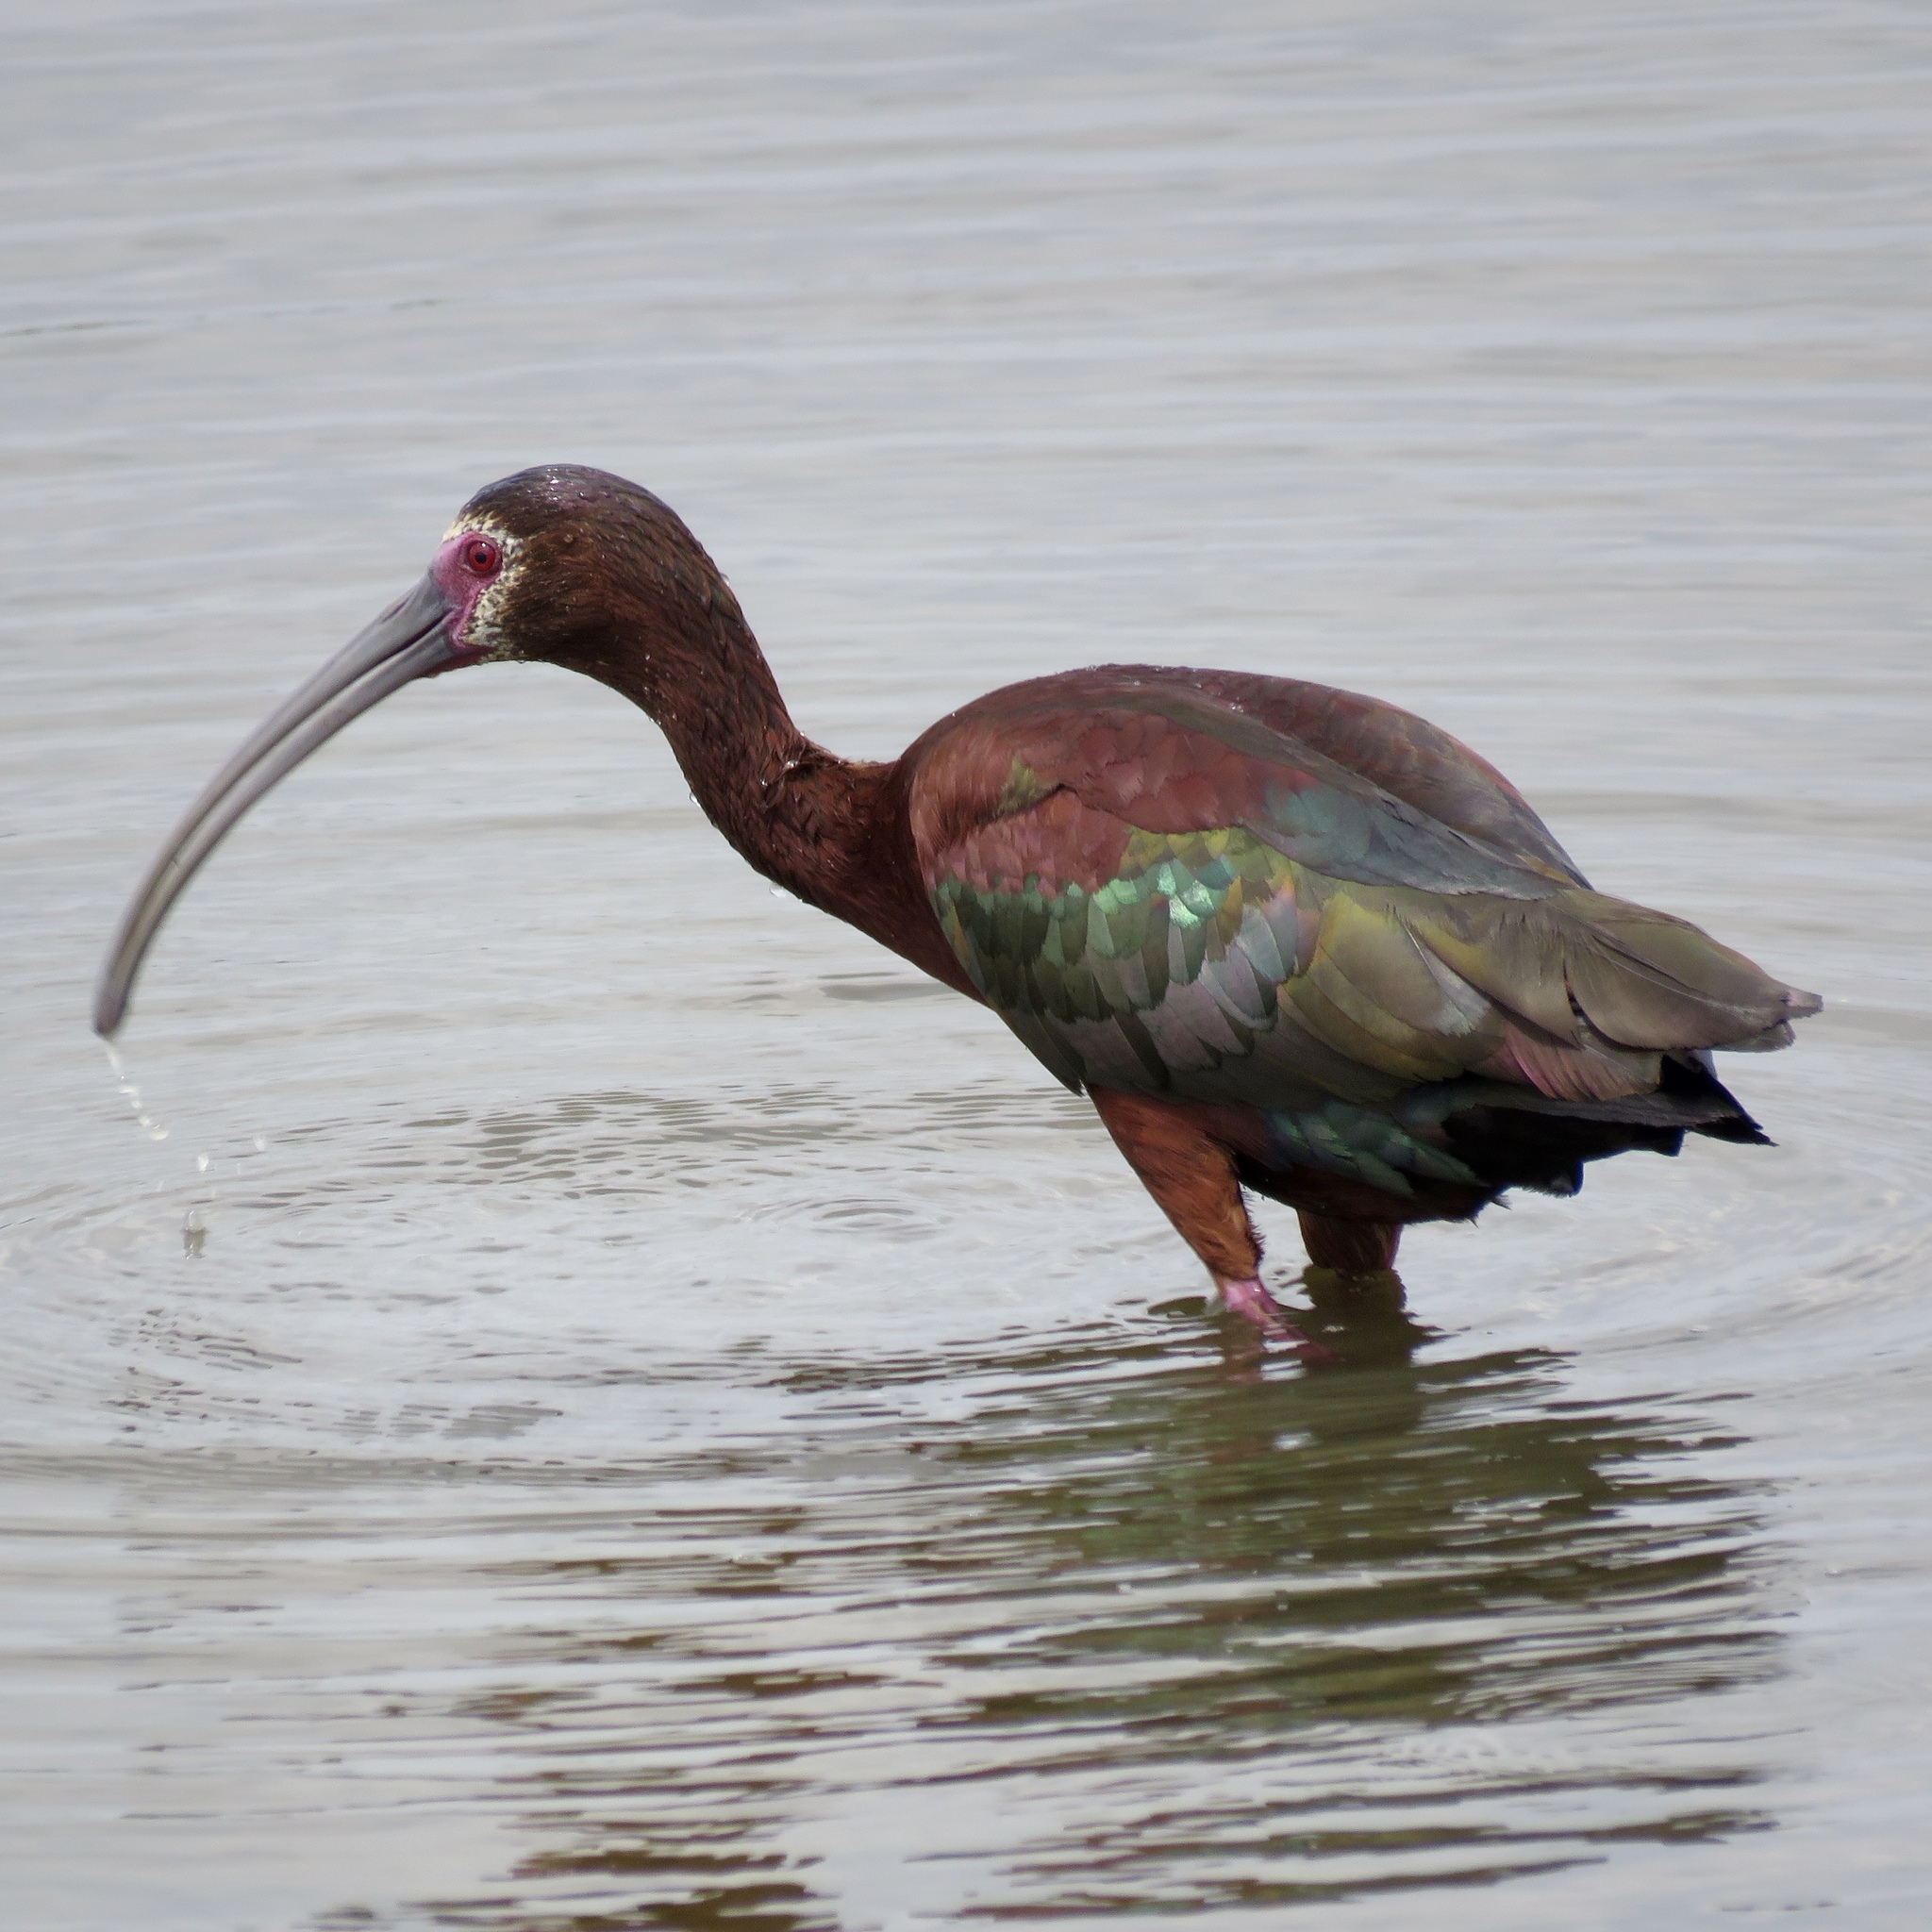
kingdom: Animalia
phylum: Chordata
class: Aves
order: Pelecaniformes
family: Threskiornithidae
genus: Plegadis
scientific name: Plegadis chihi
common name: White-faced ibis
